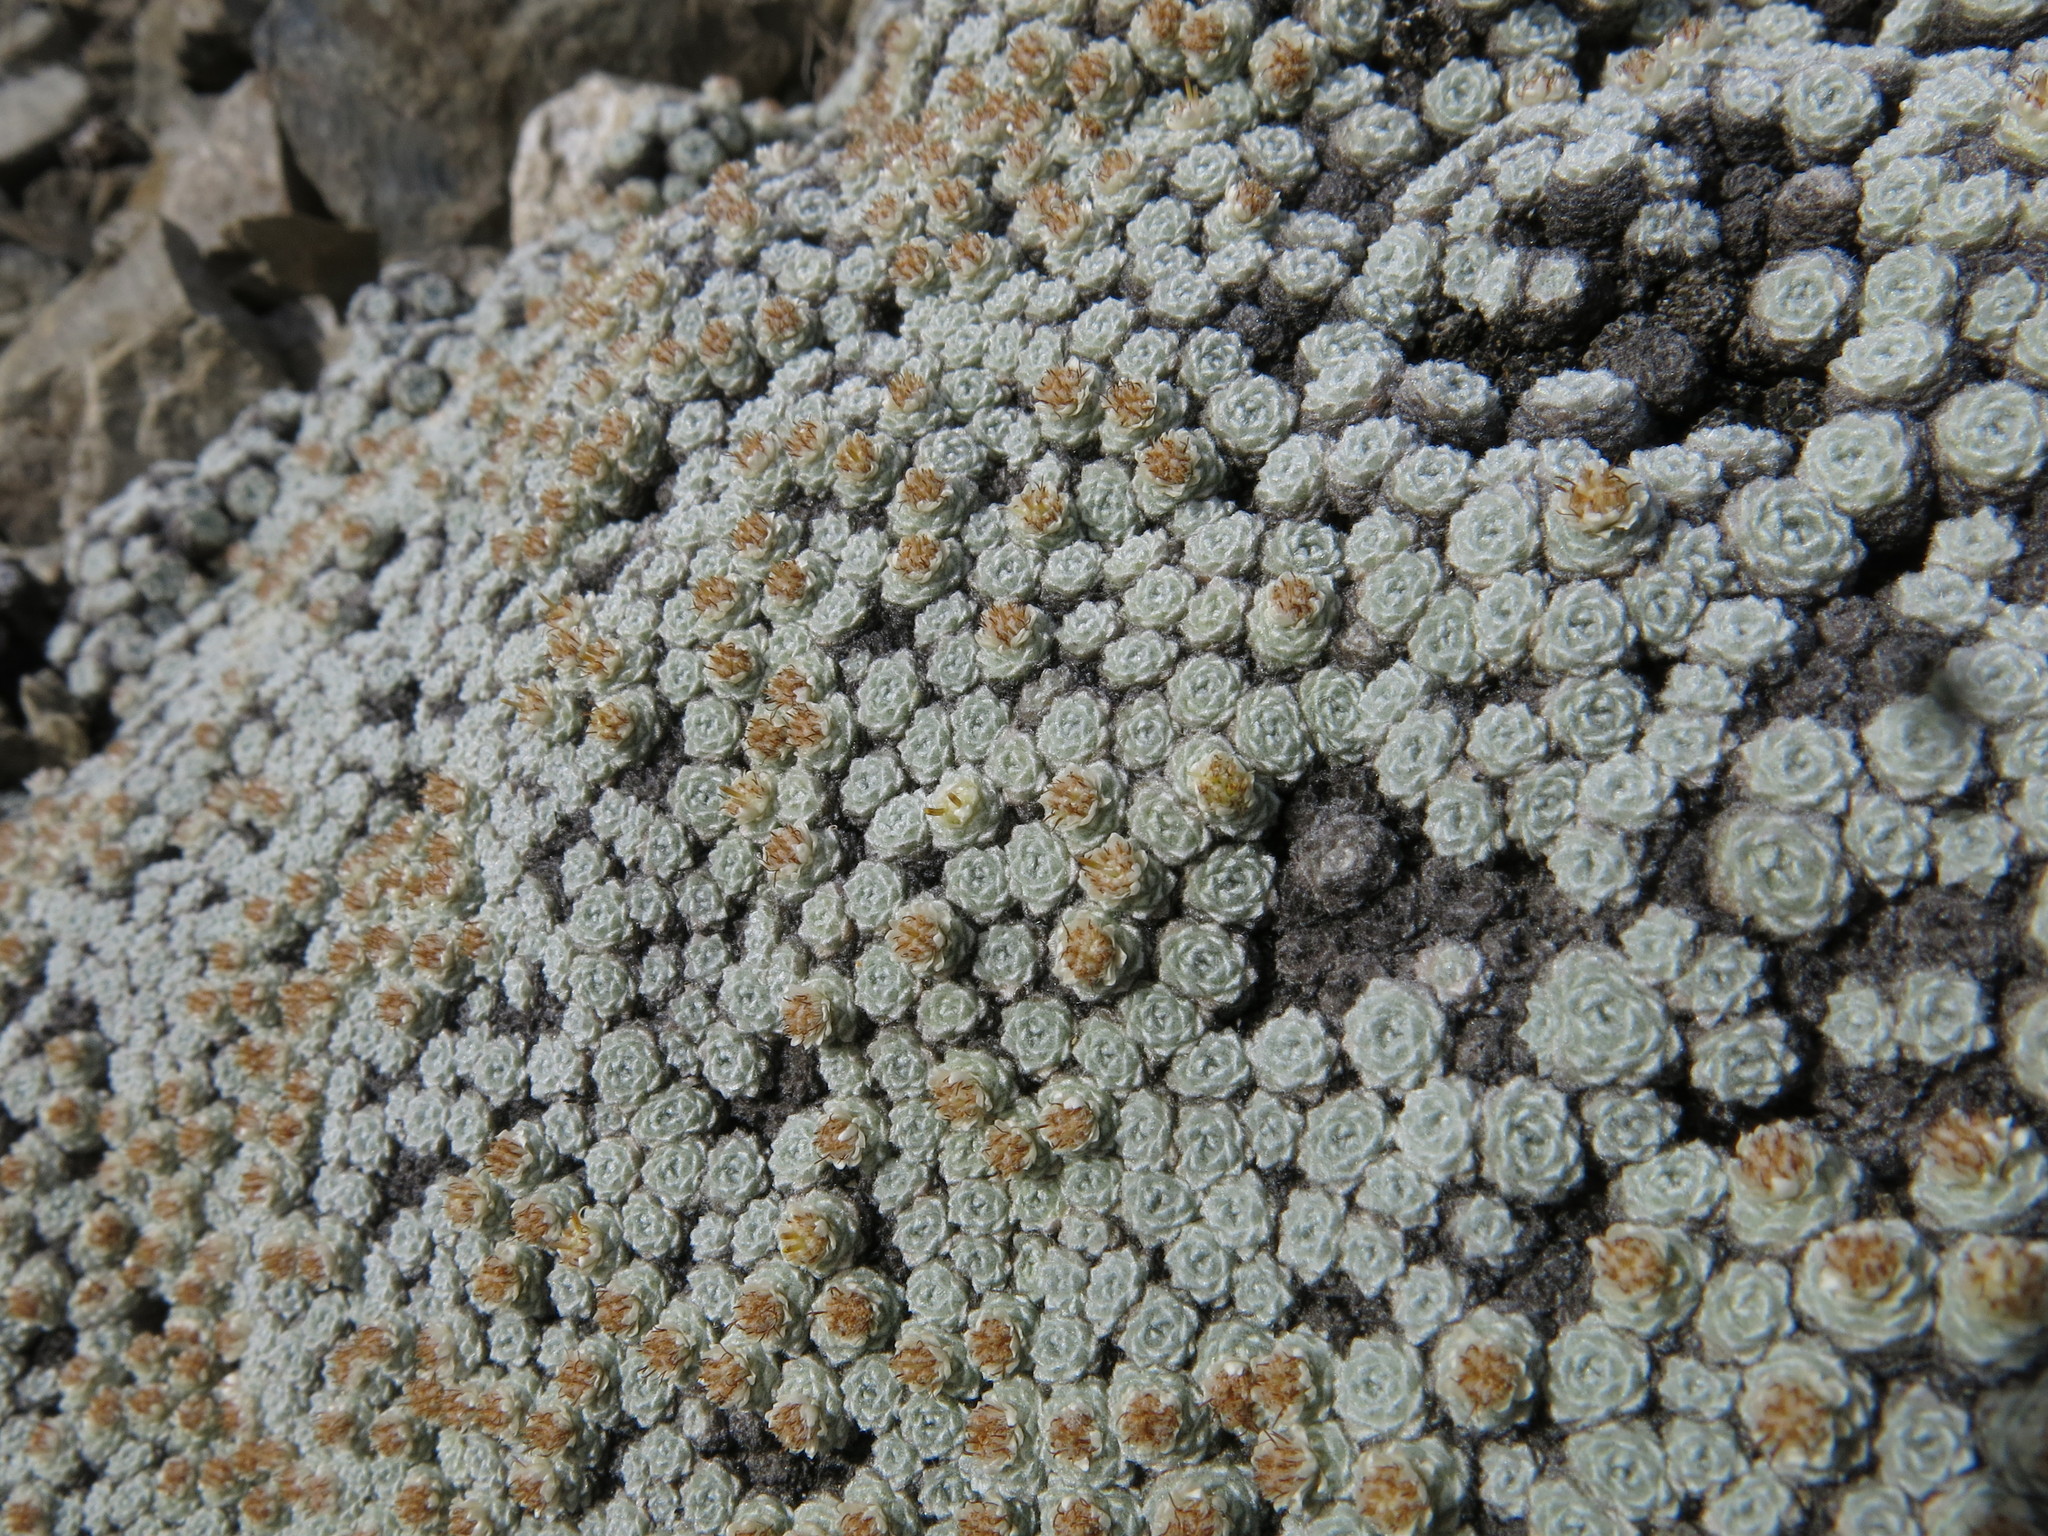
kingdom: Plantae
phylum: Tracheophyta
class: Magnoliopsida
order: Asterales
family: Asteraceae
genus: Raoulia
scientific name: Raoulia bryoides
